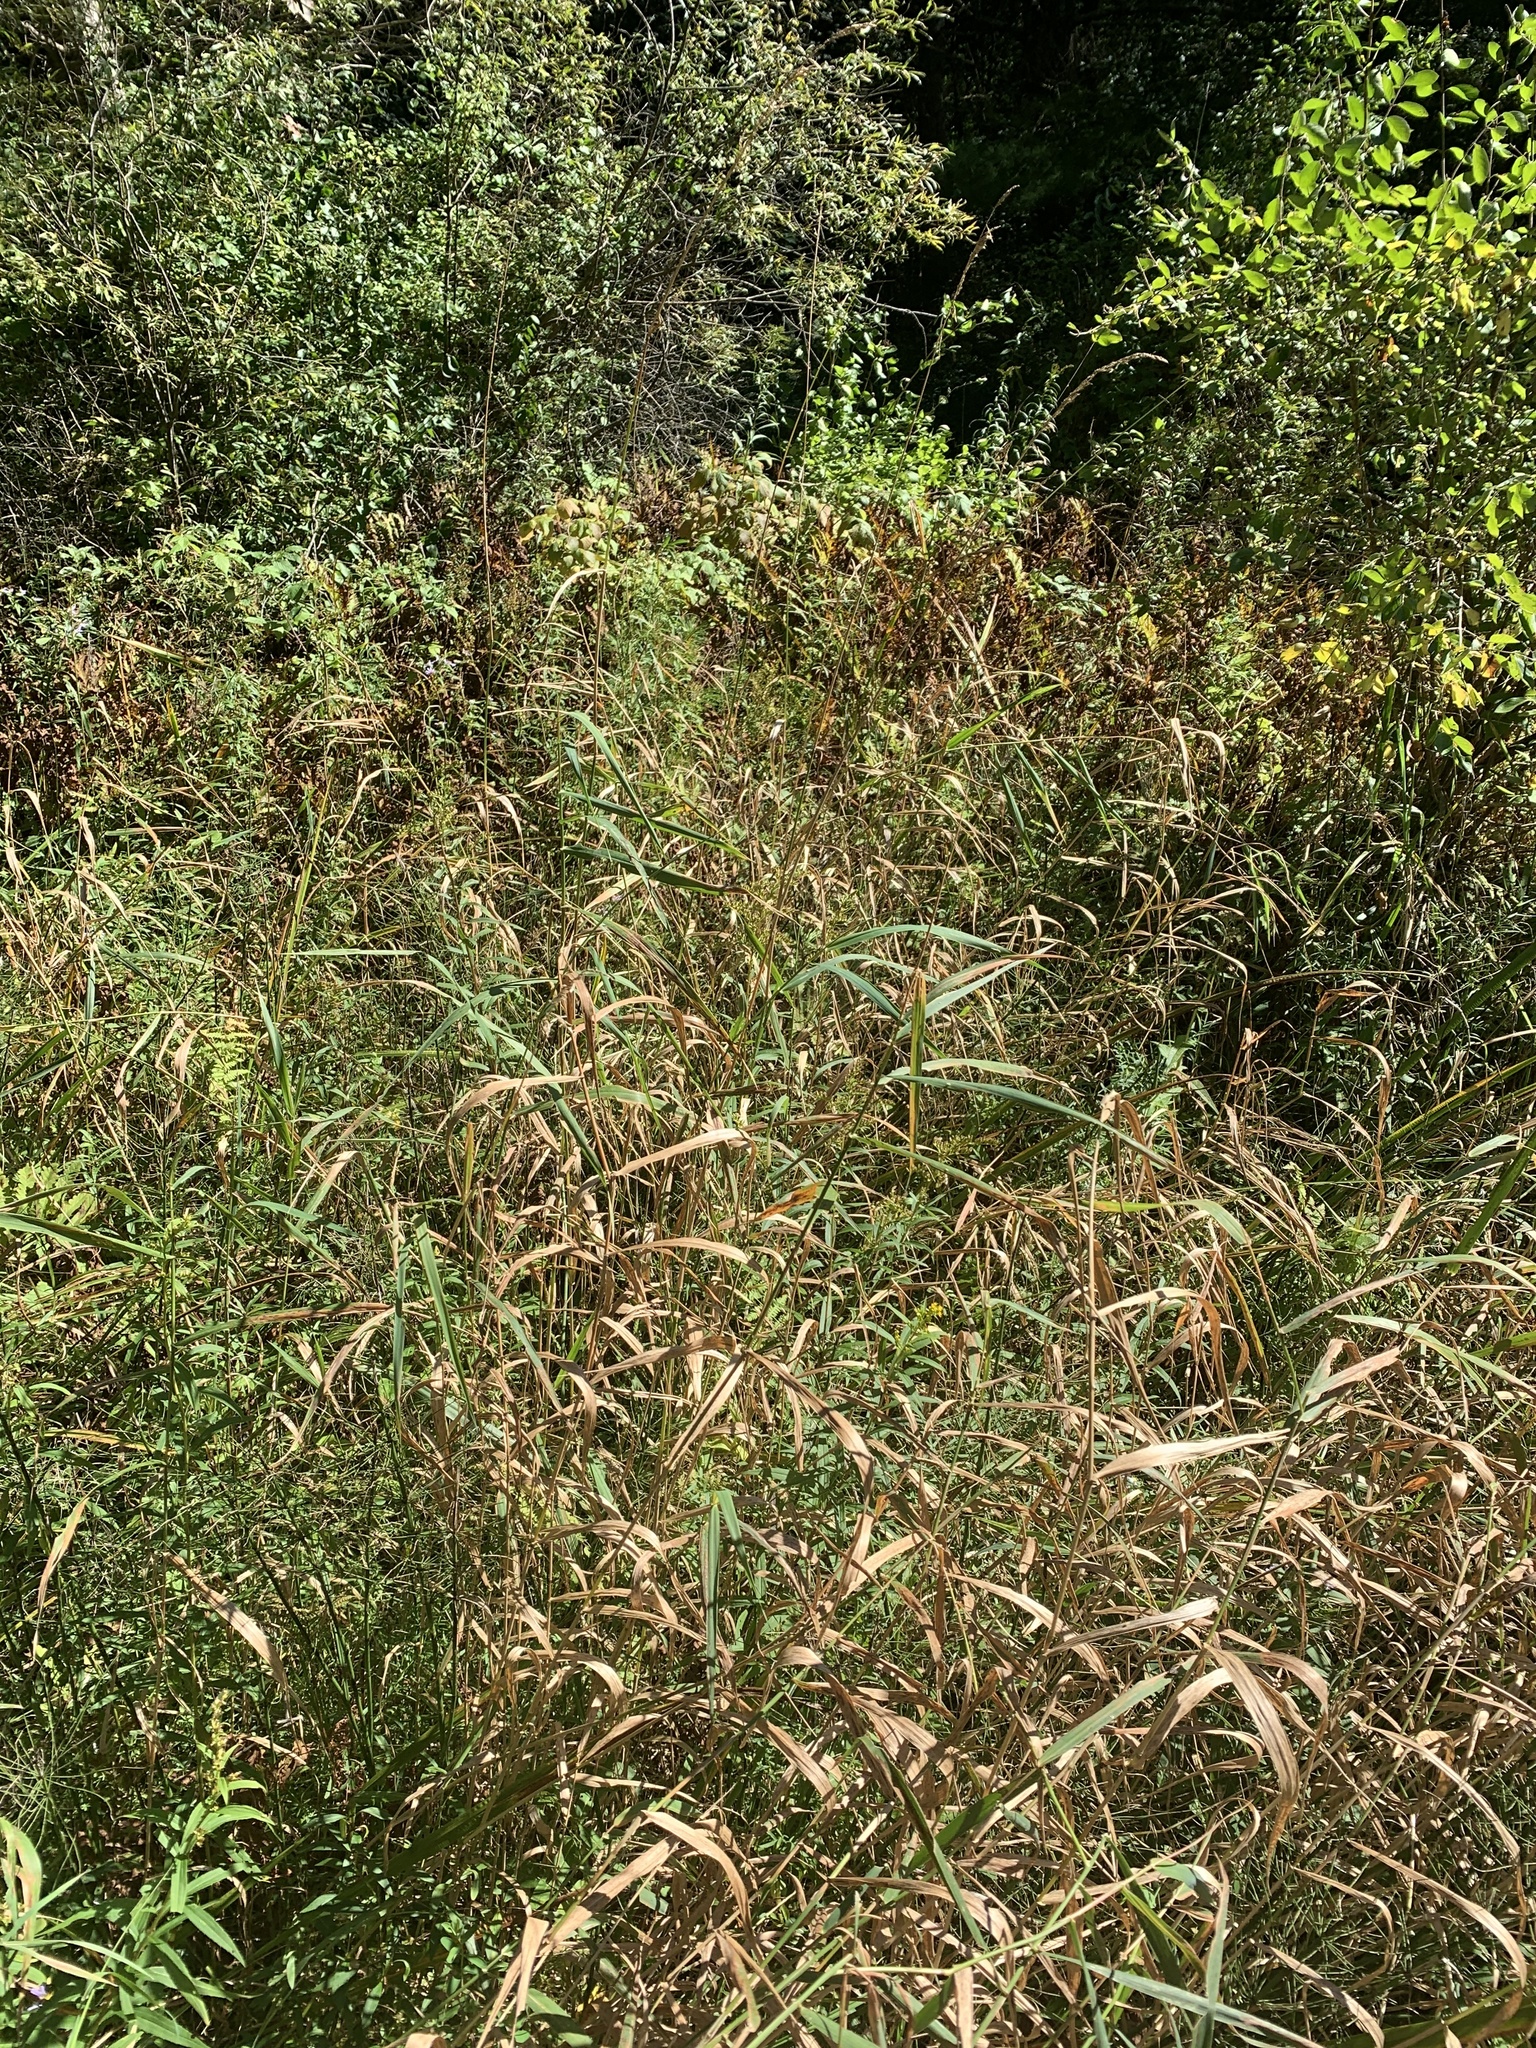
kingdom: Plantae
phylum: Tracheophyta
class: Liliopsida
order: Poales
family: Poaceae
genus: Phalaris
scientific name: Phalaris arundinacea
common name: Reed canary-grass
